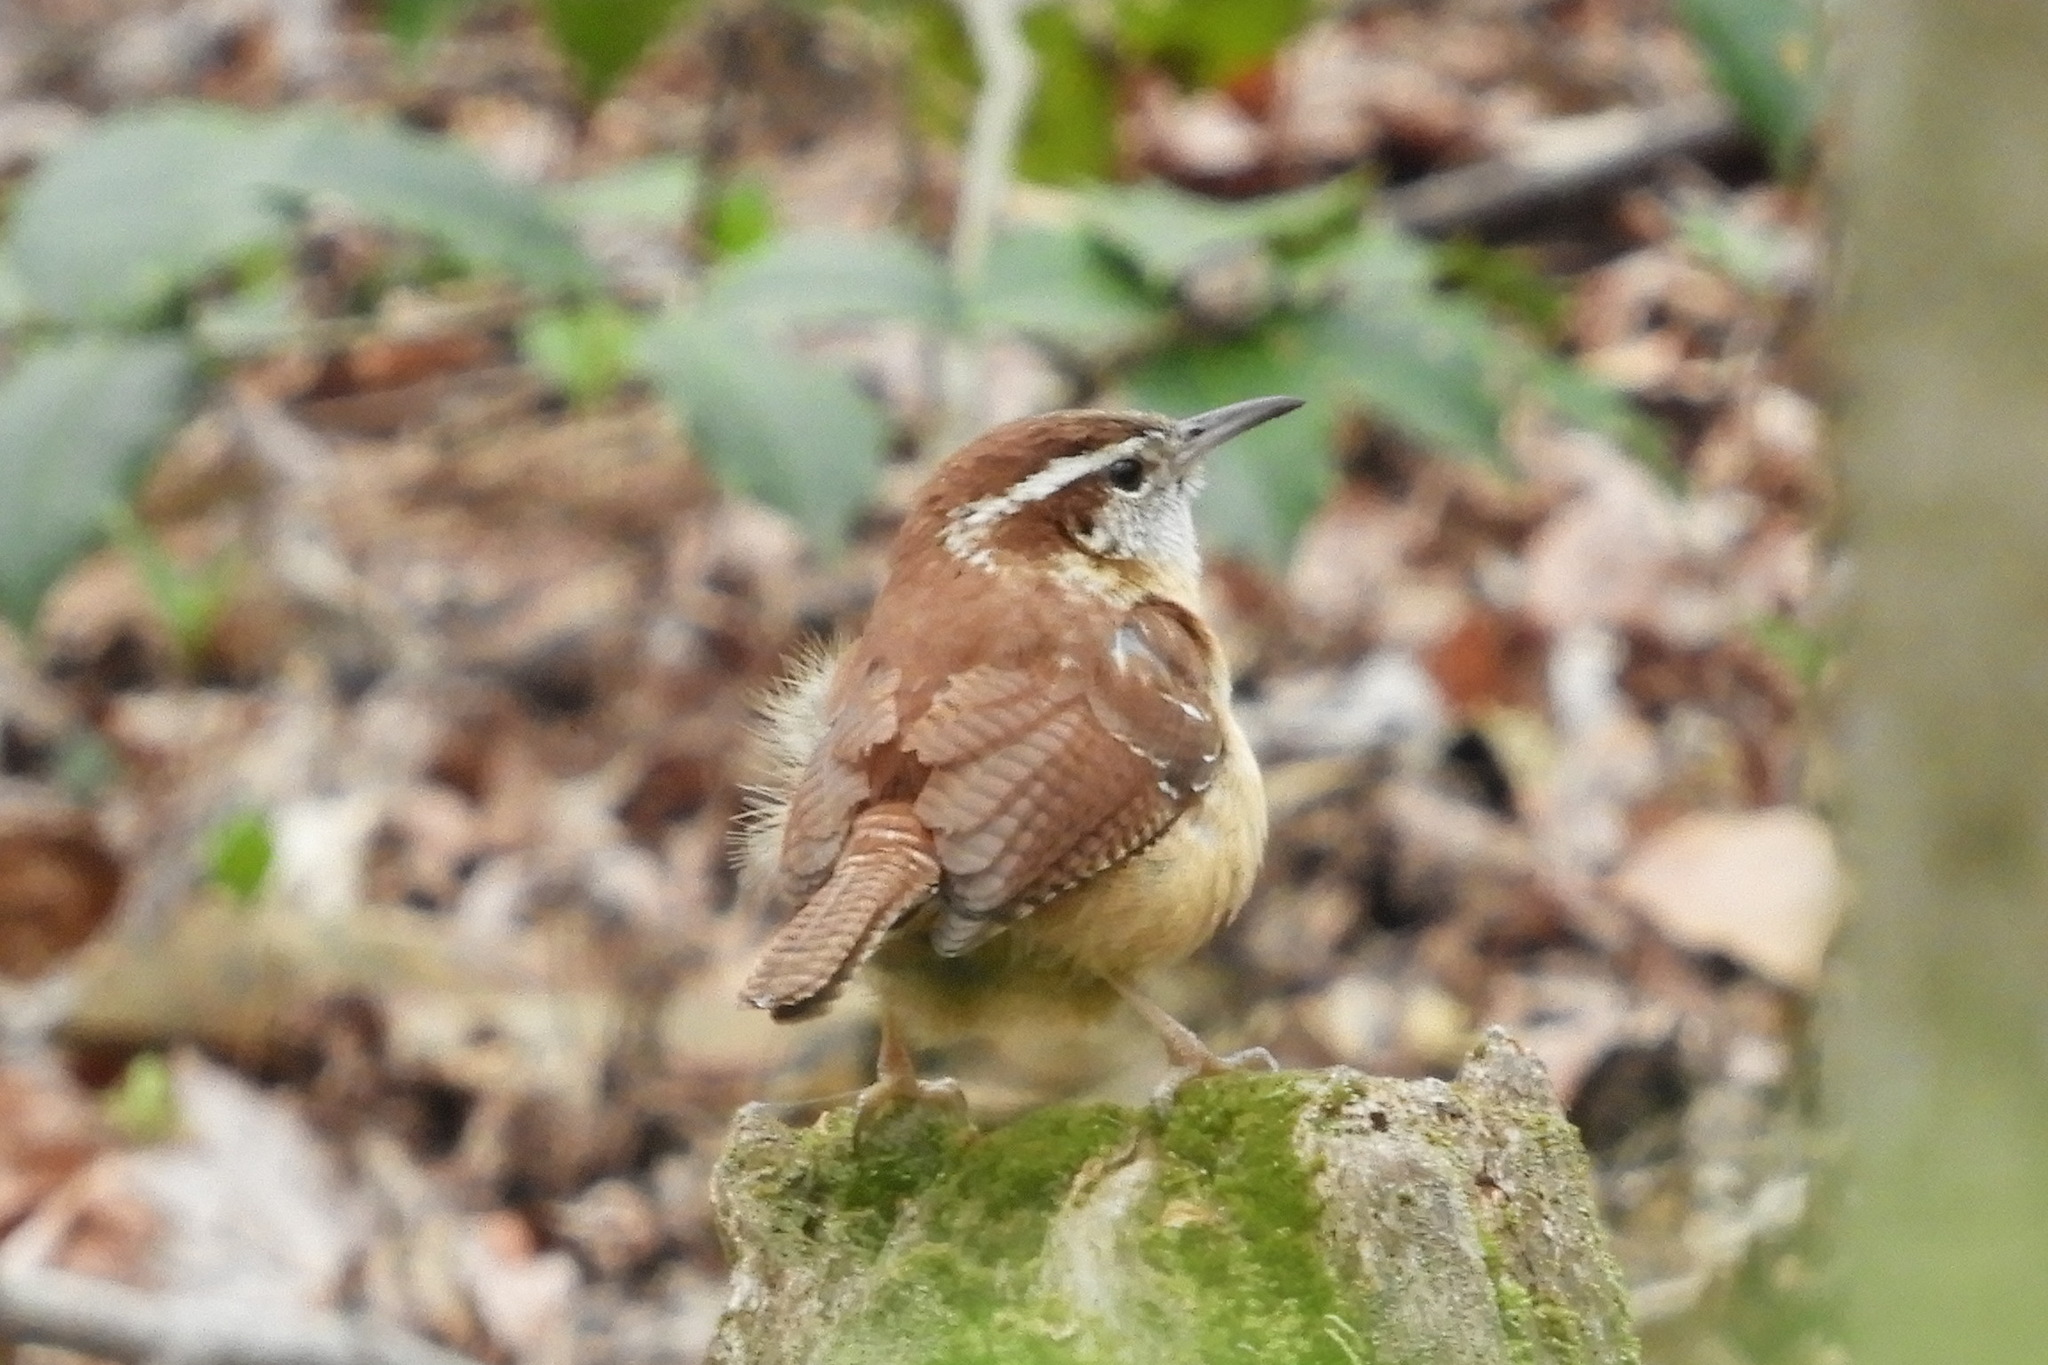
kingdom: Animalia
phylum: Chordata
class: Aves
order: Passeriformes
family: Troglodytidae
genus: Thryothorus
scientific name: Thryothorus ludovicianus
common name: Carolina wren
